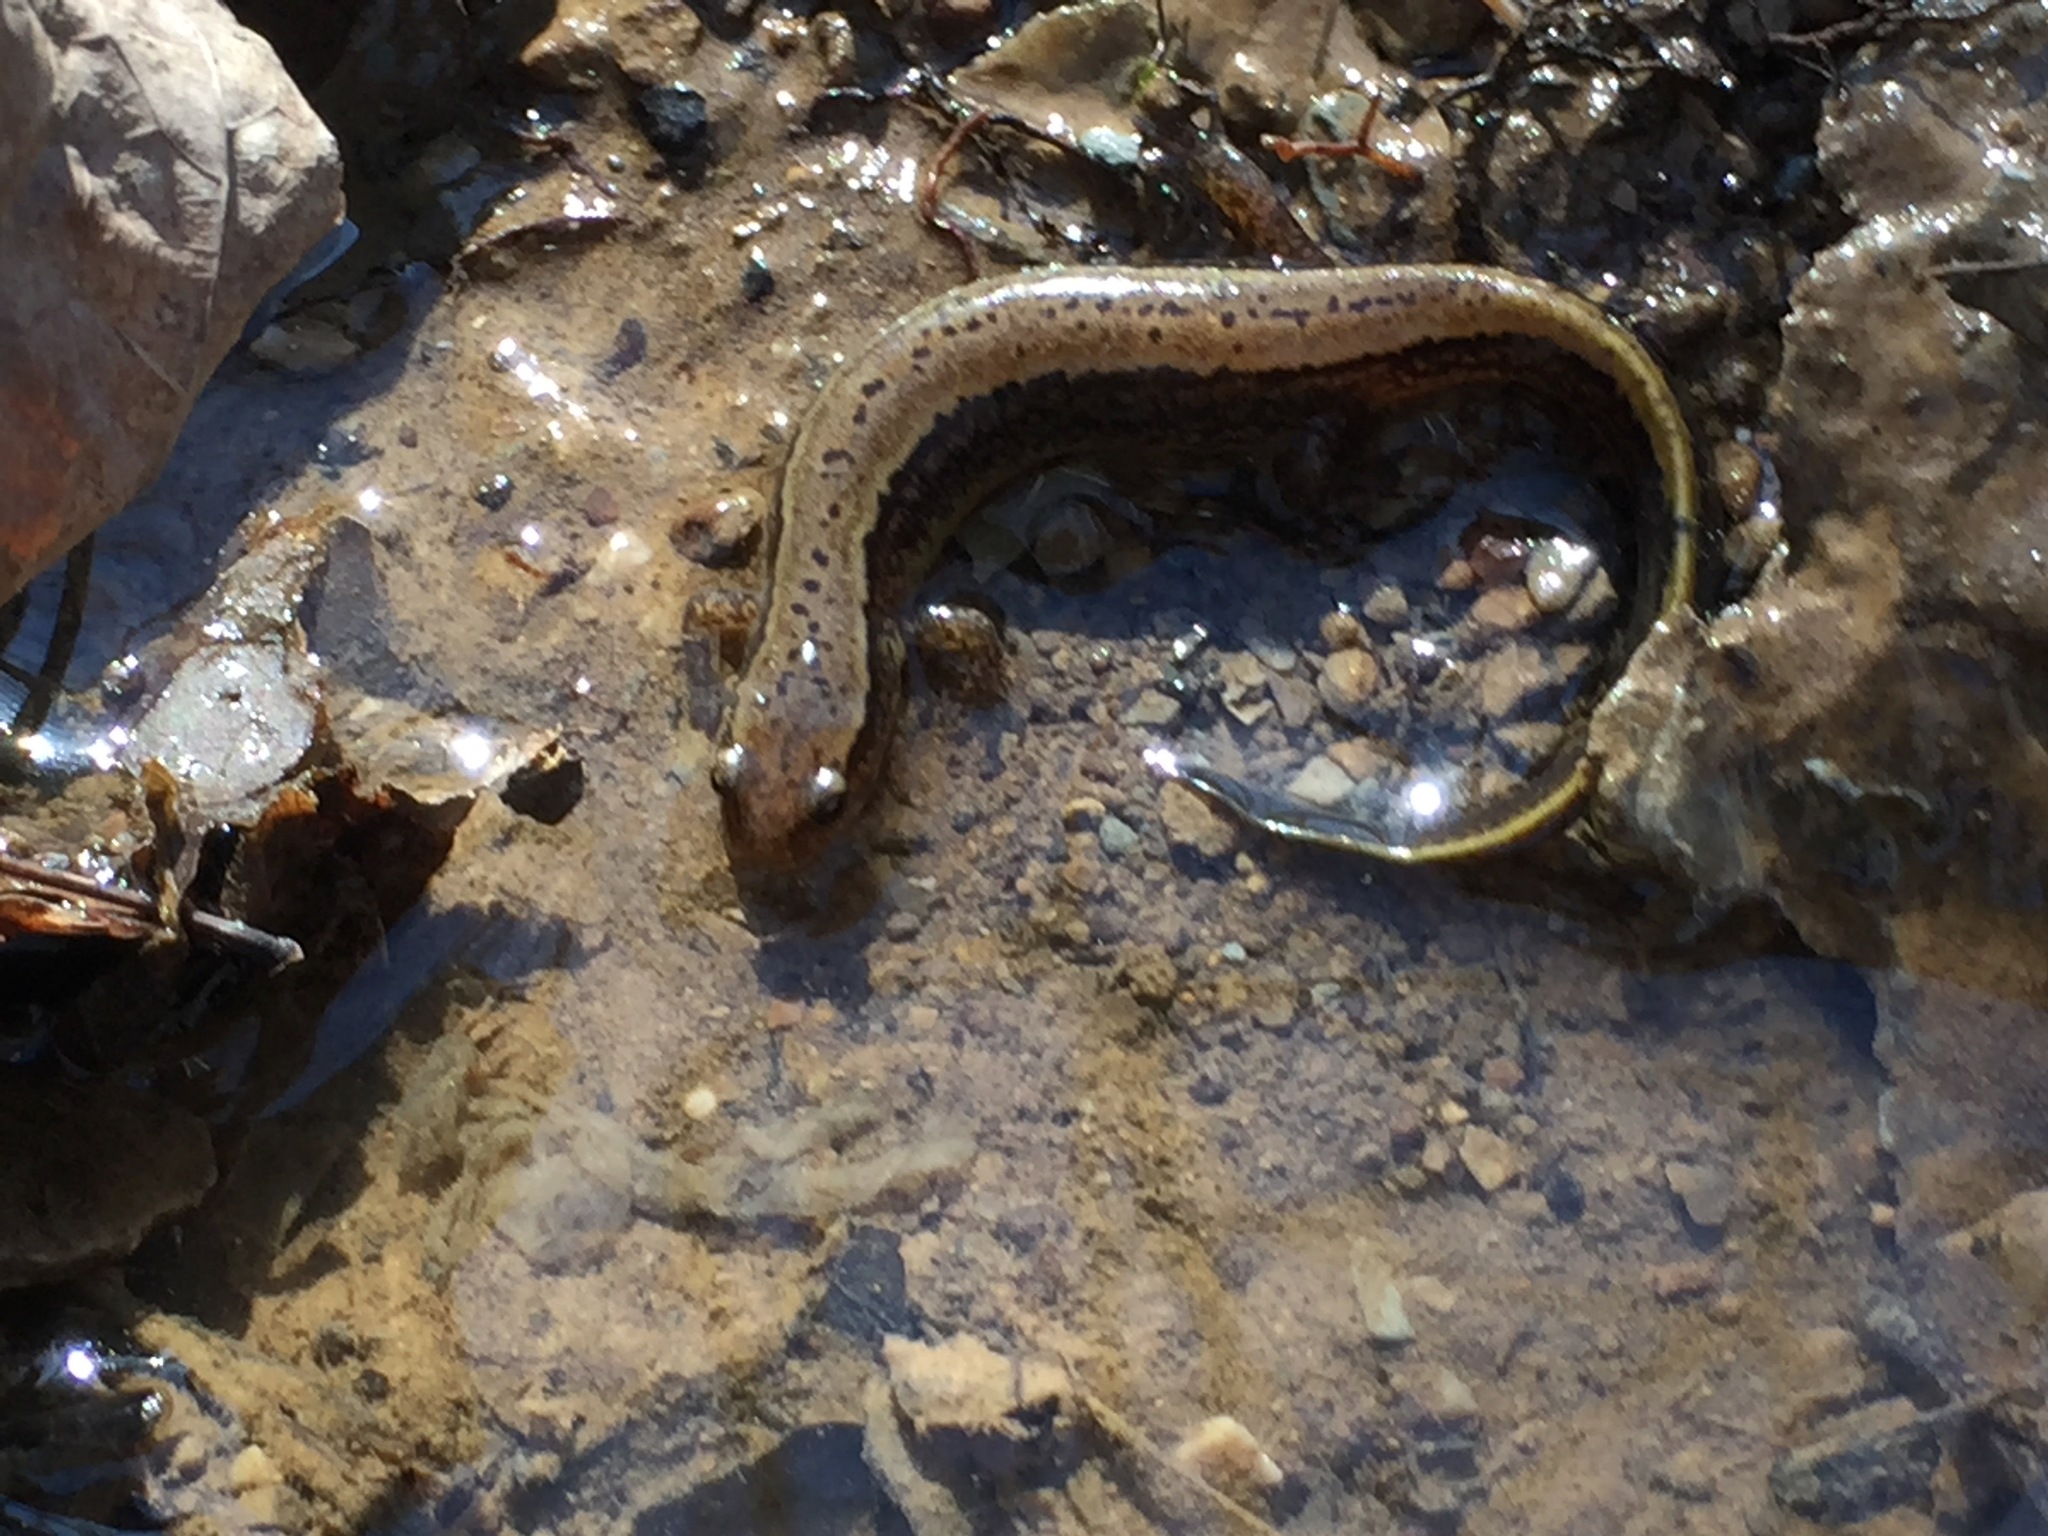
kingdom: Animalia
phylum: Chordata
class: Amphibia
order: Caudata
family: Plethodontidae
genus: Eurycea
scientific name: Eurycea cirrigera
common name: Southern two-lined salamander
